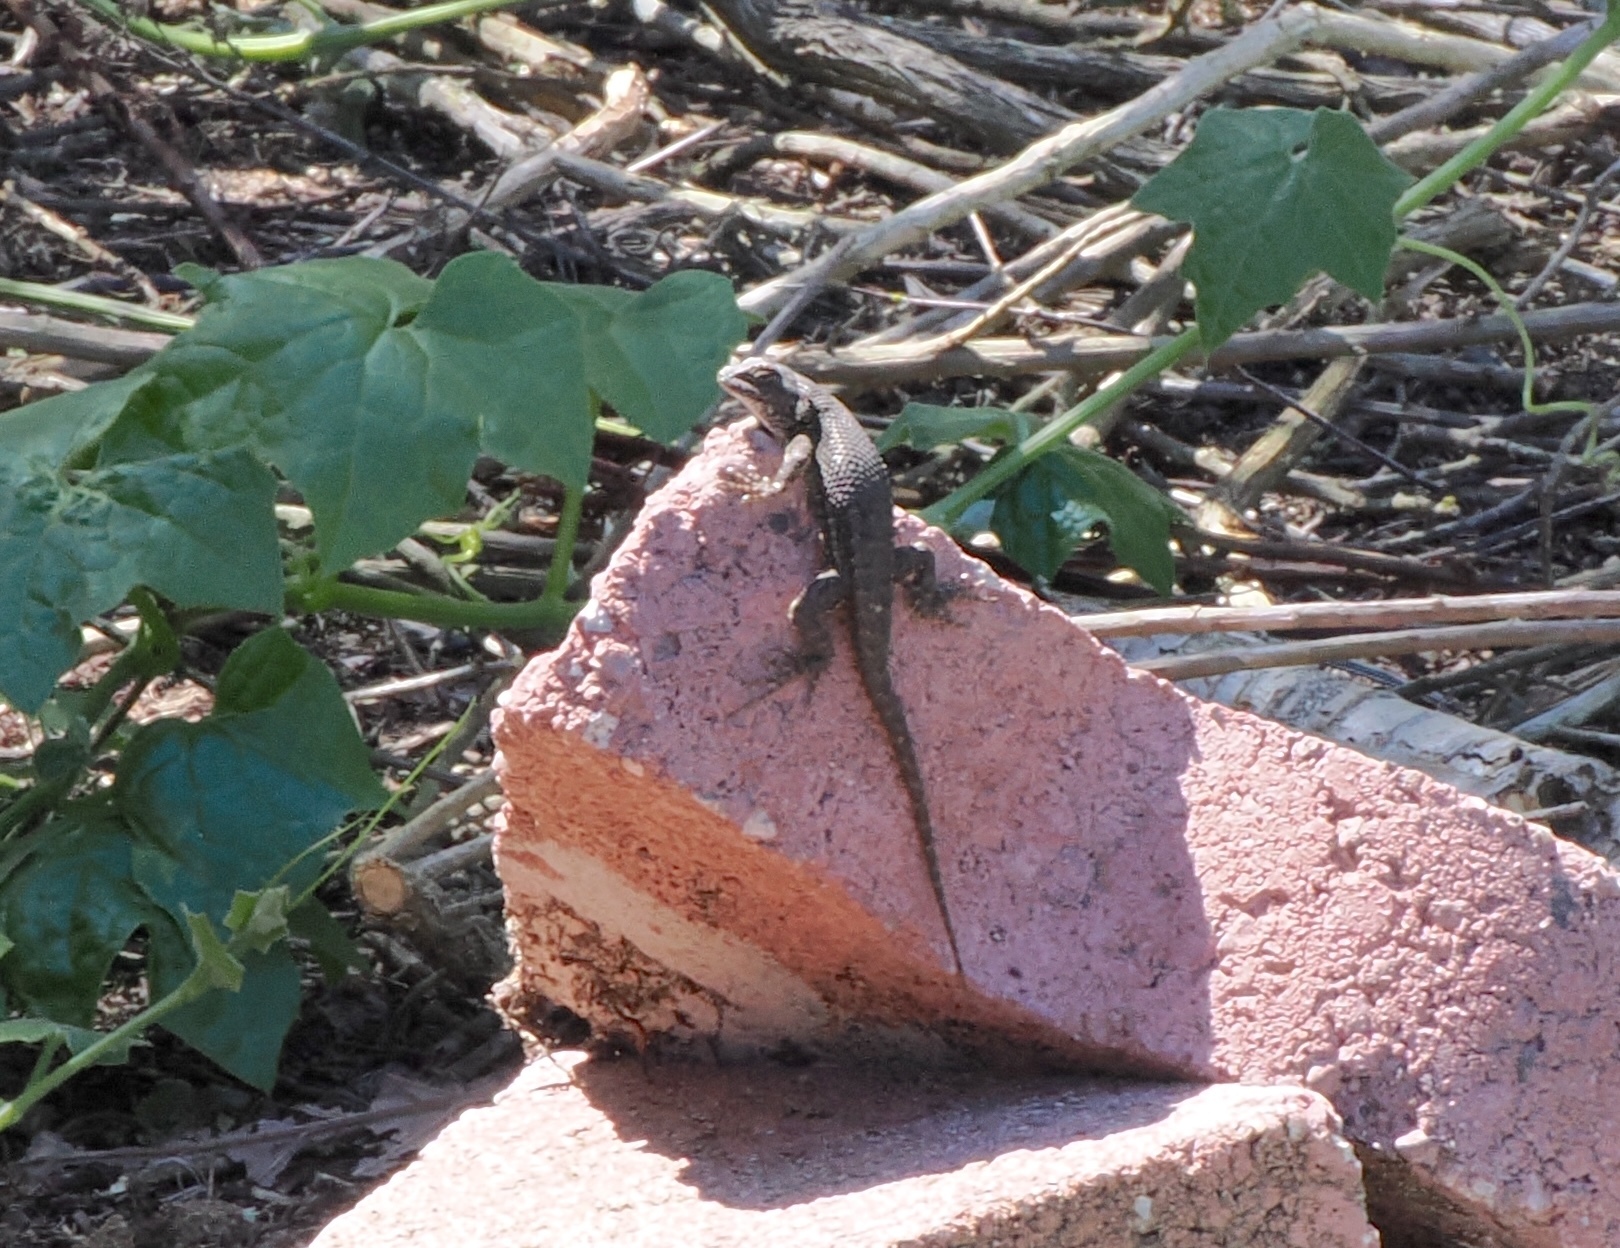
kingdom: Animalia
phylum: Chordata
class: Squamata
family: Phrynosomatidae
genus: Sceloporus
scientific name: Sceloporus occidentalis
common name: Western fence lizard
